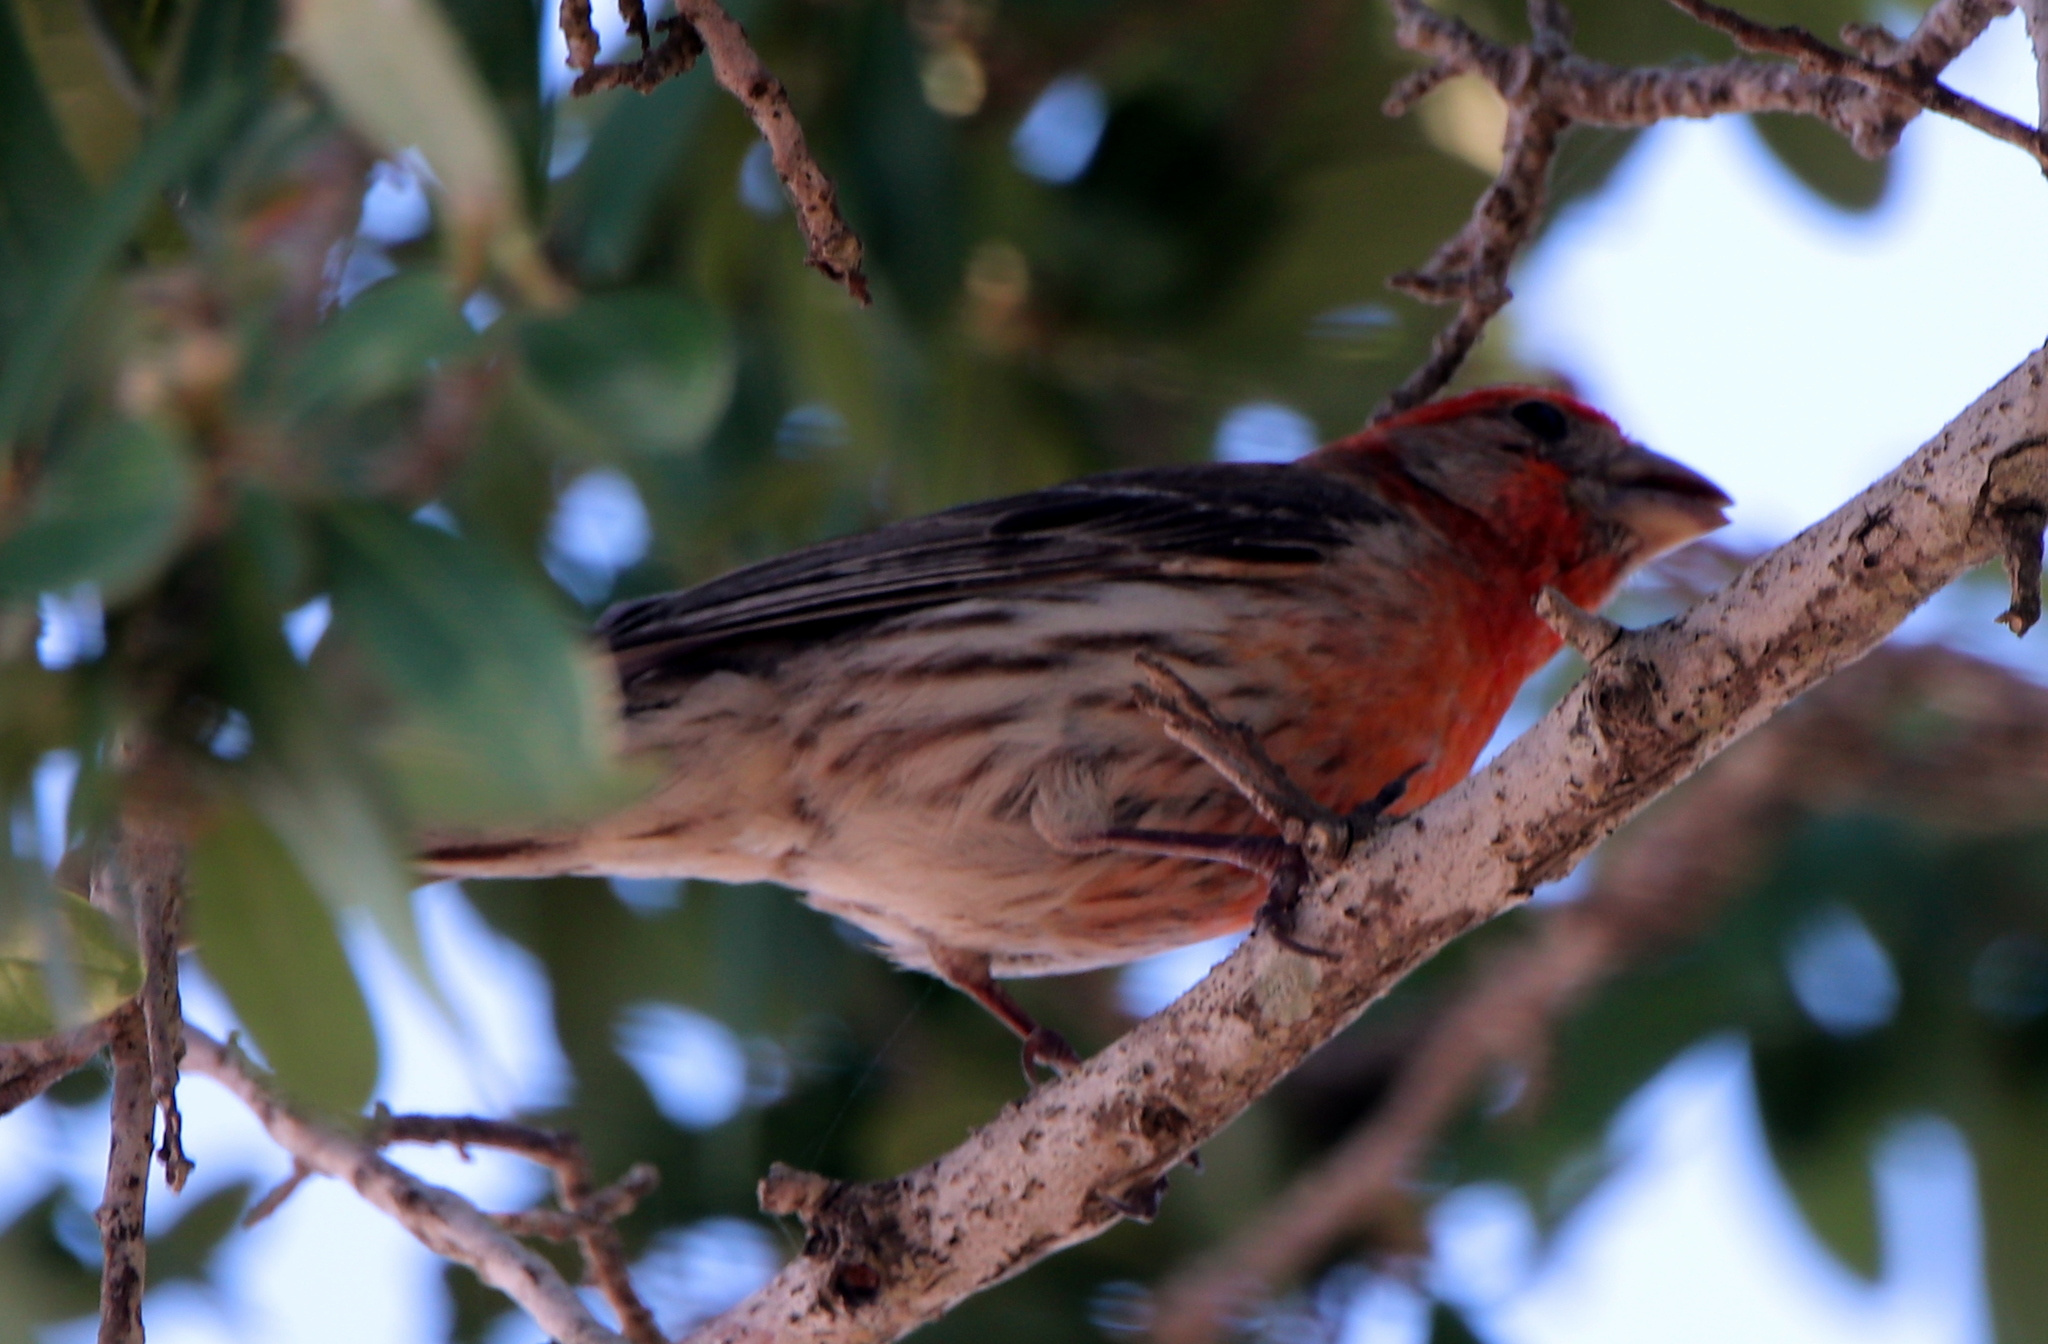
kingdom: Animalia
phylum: Chordata
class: Aves
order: Passeriformes
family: Fringillidae
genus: Haemorhous
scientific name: Haemorhous mexicanus
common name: House finch
